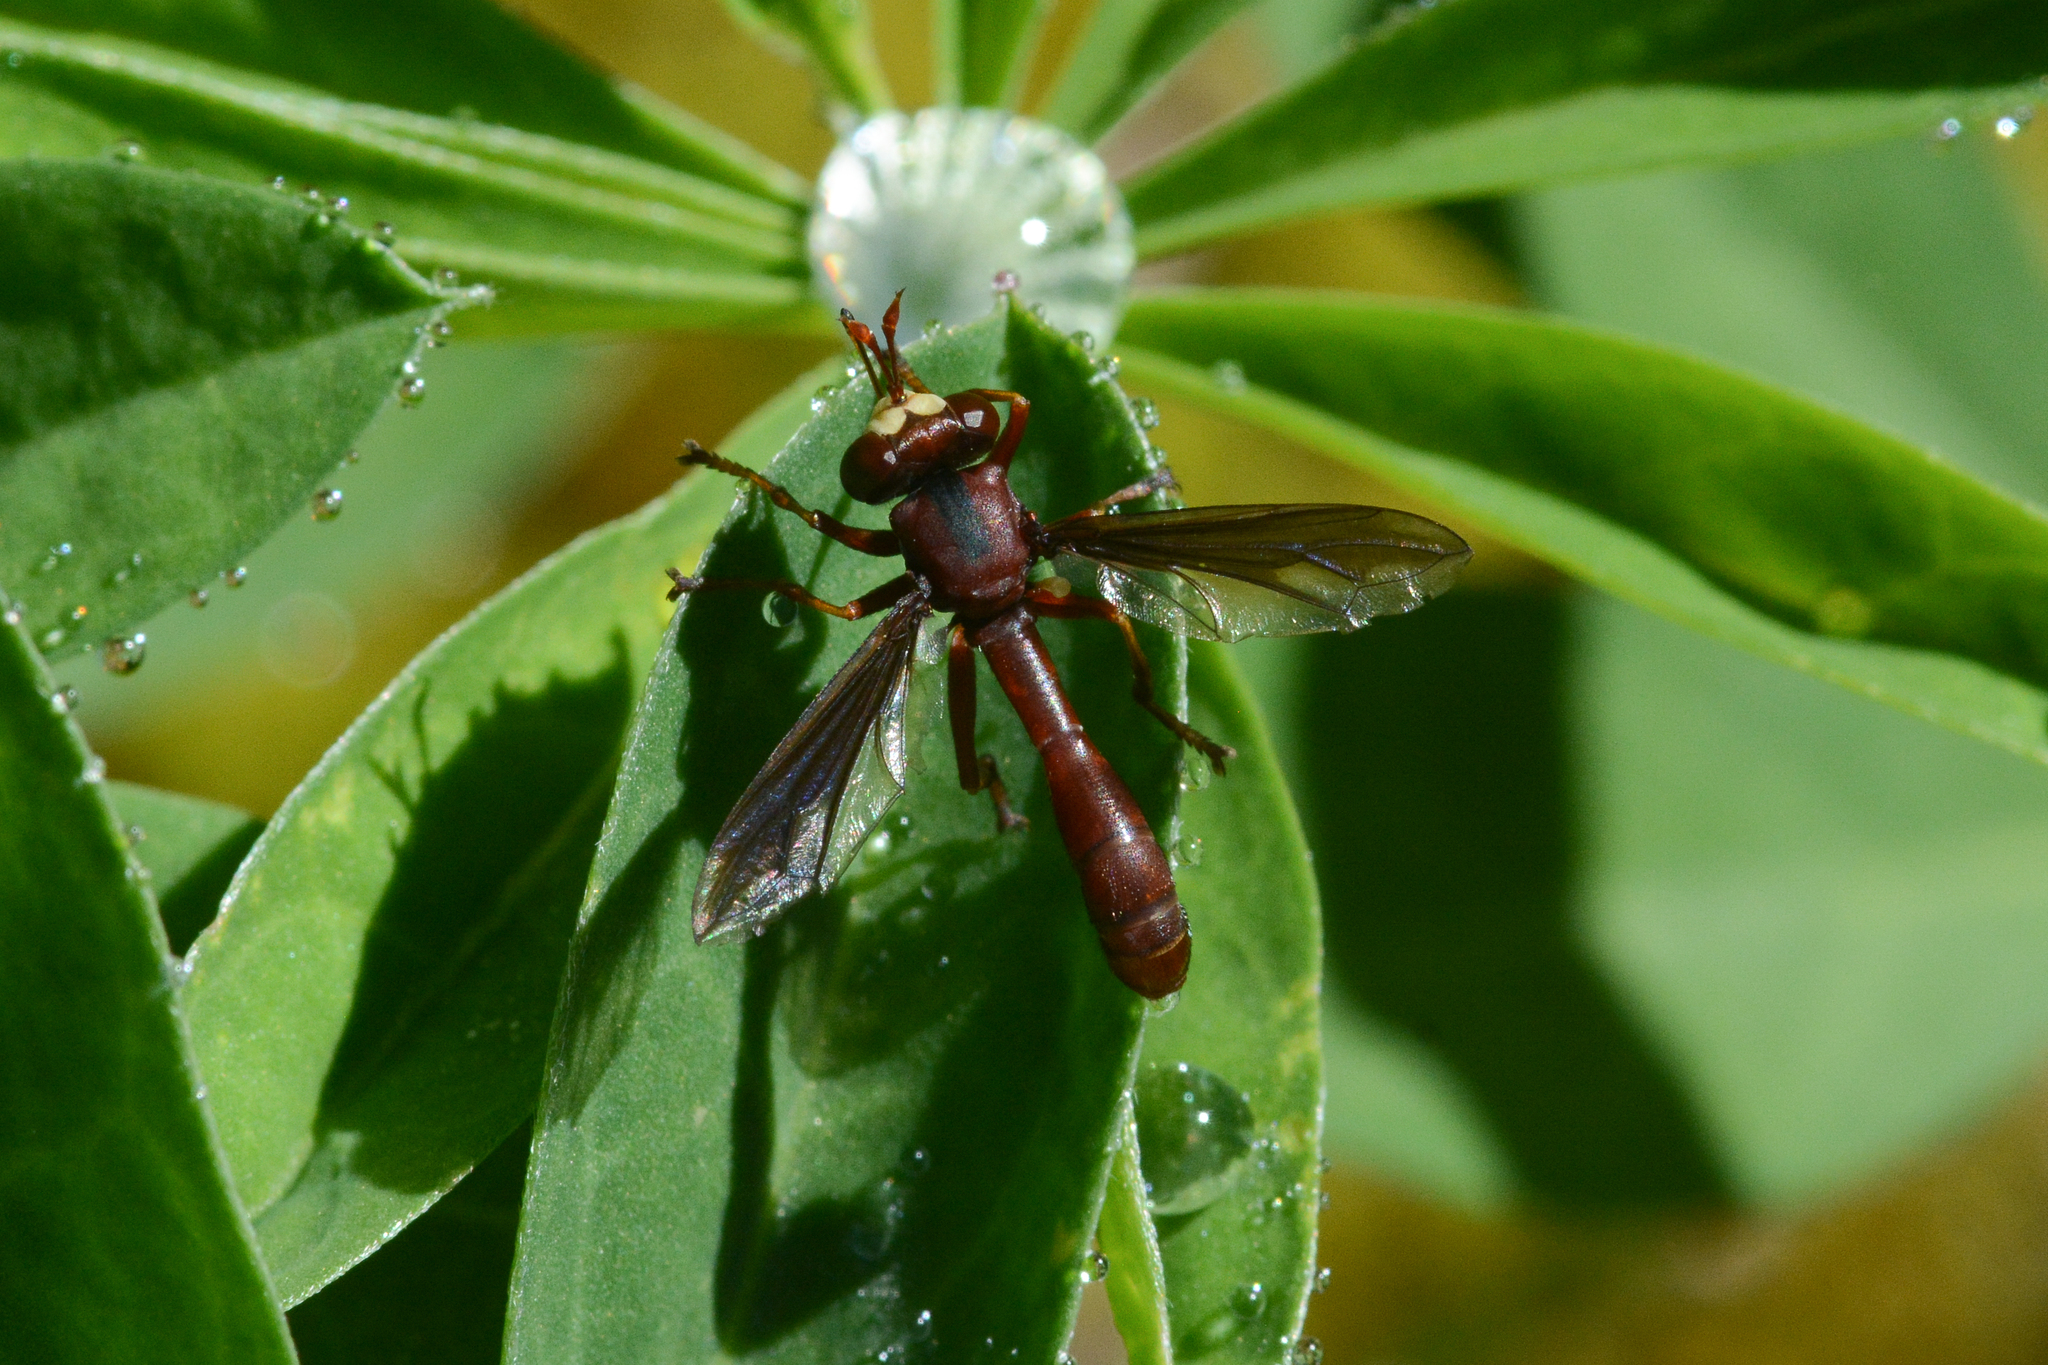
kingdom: Animalia
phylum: Arthropoda
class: Insecta
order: Diptera
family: Conopidae
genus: Physocephala
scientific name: Physocephala burgessi
